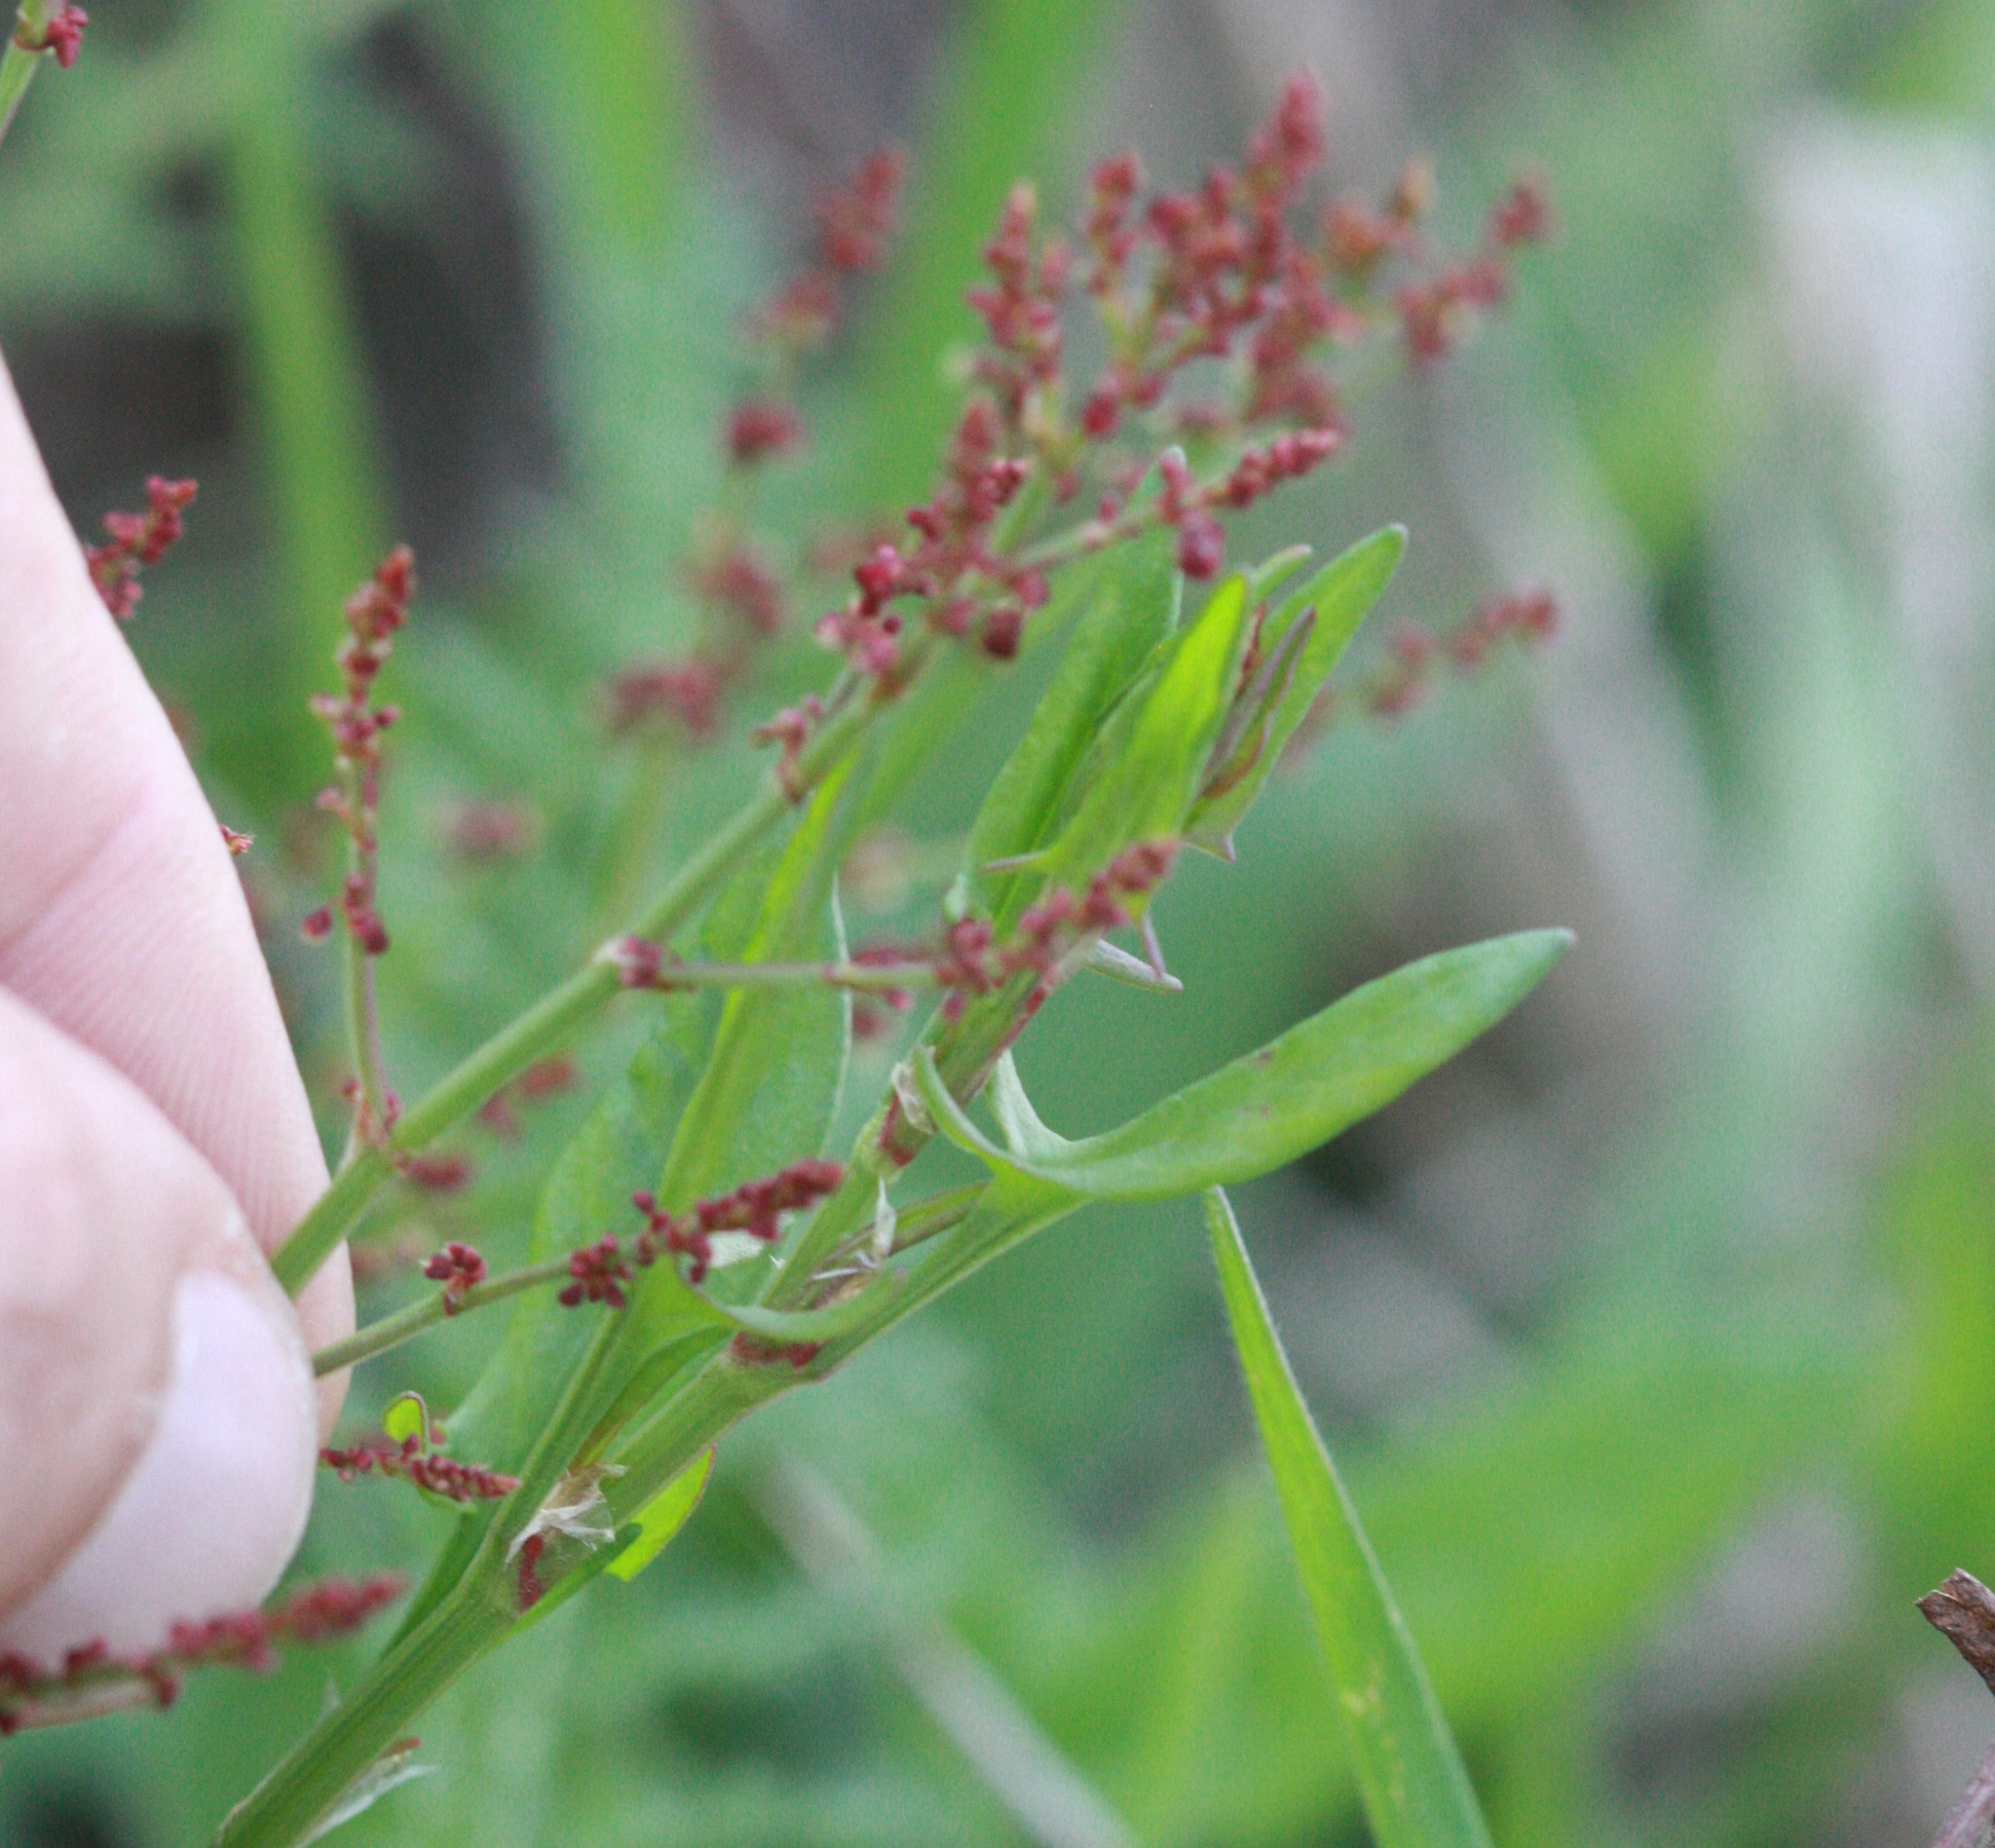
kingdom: Plantae
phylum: Tracheophyta
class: Magnoliopsida
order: Caryophyllales
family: Polygonaceae
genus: Rumex
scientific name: Rumex acetosella
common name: Common sheep sorrel
